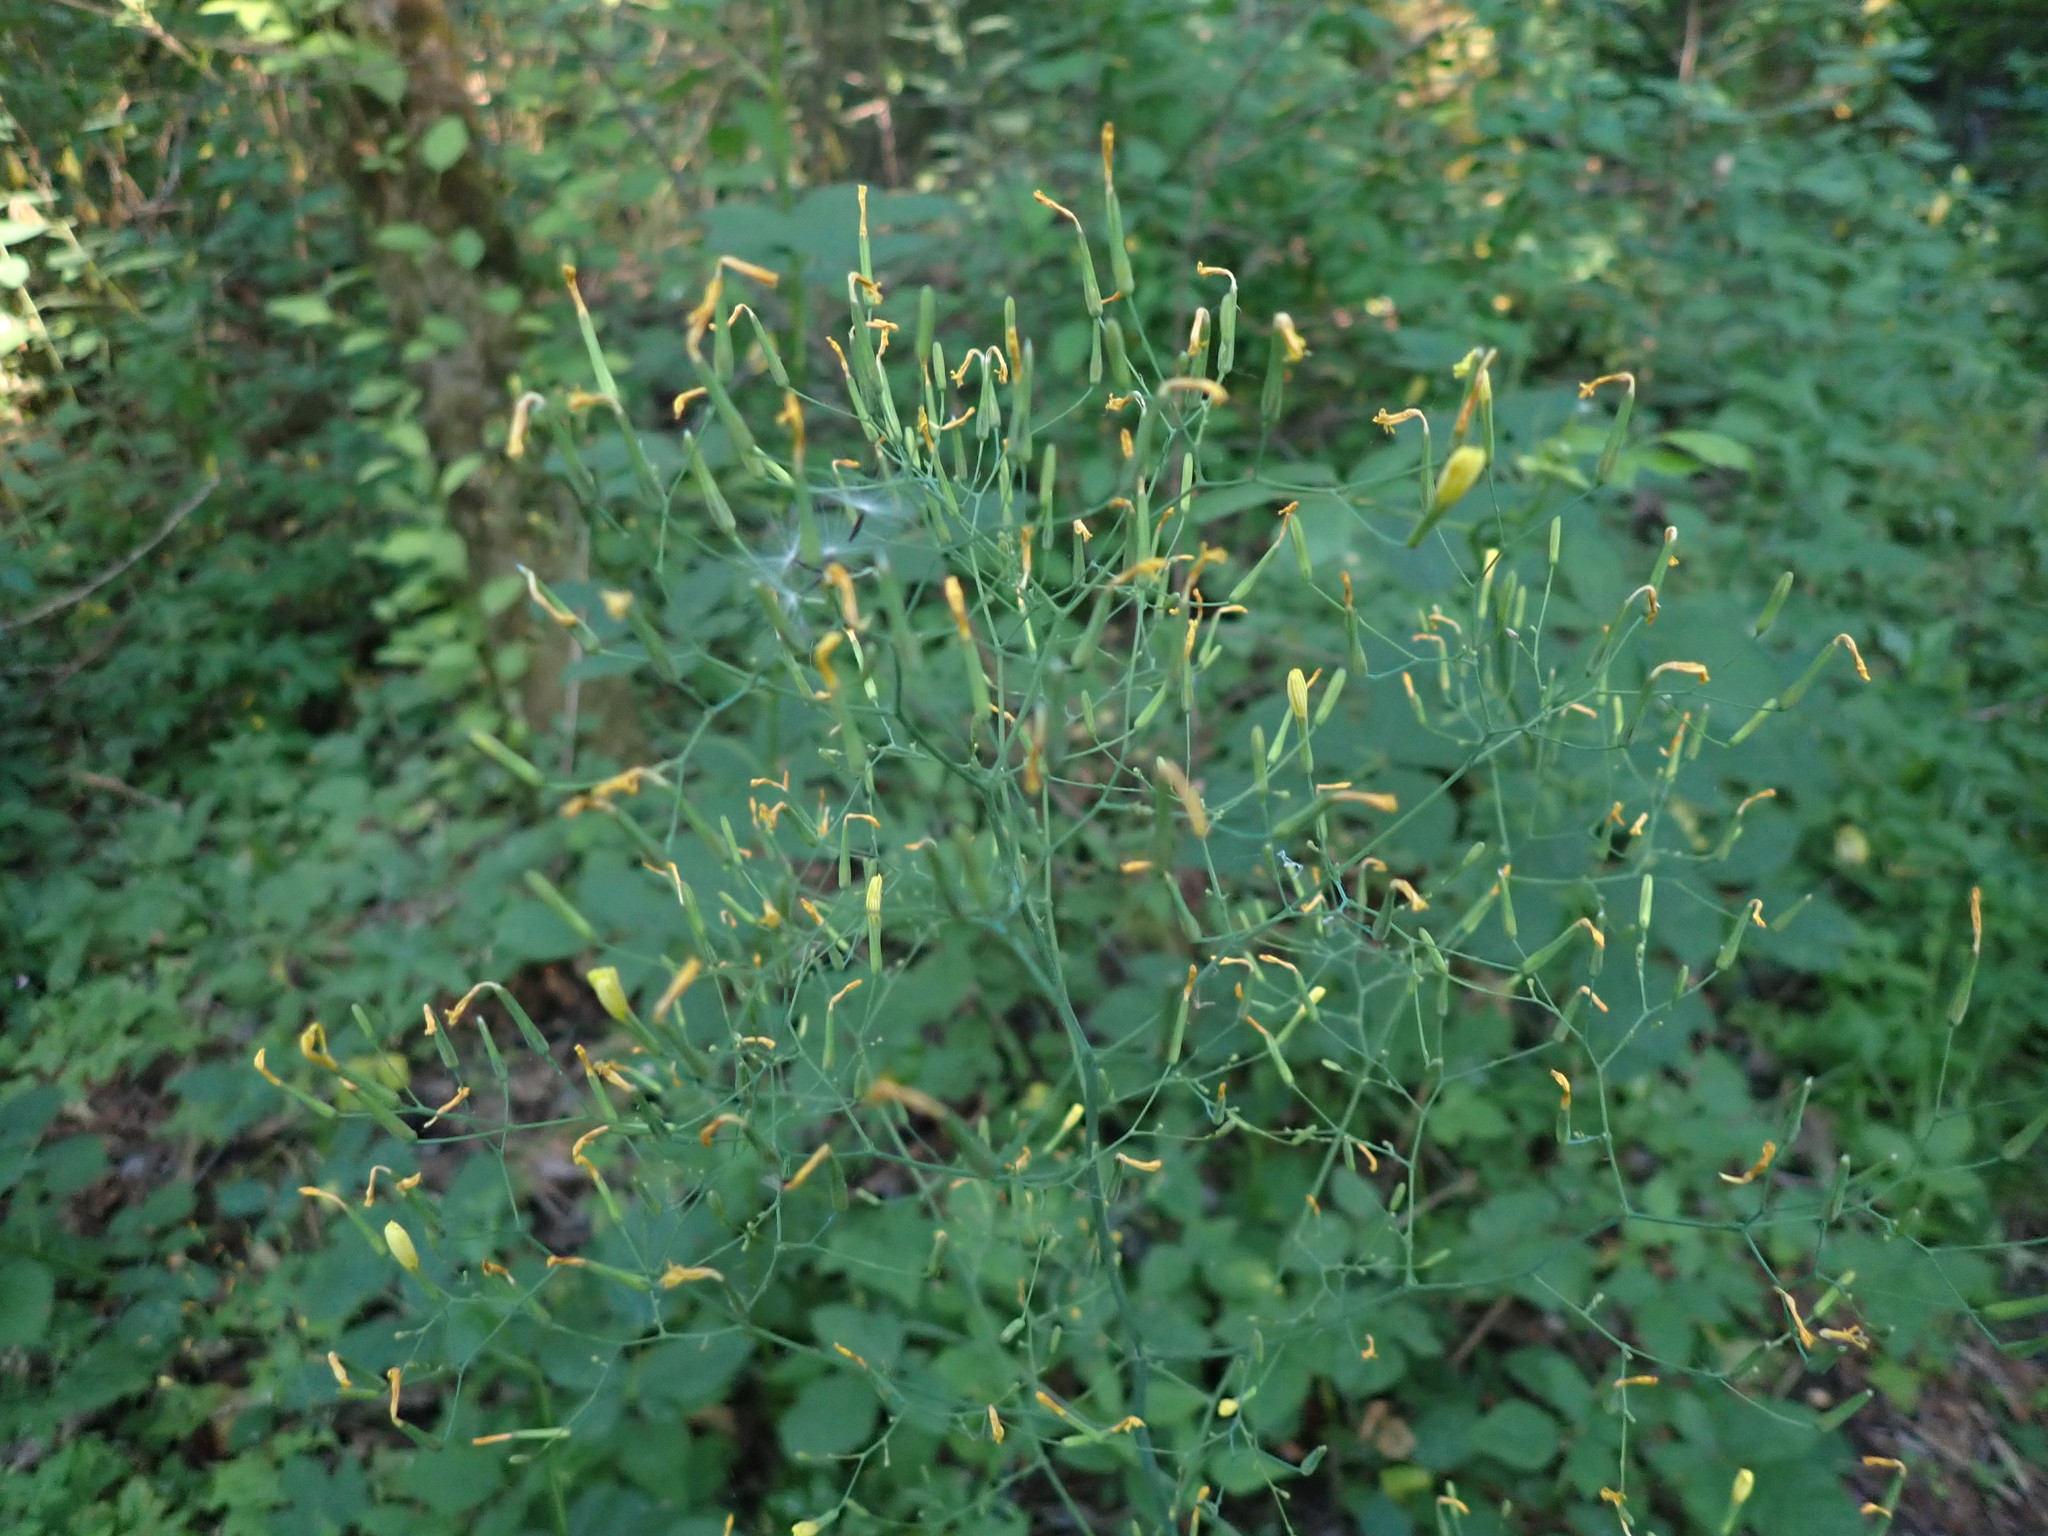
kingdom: Plantae
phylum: Tracheophyta
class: Magnoliopsida
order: Asterales
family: Asteraceae
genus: Mycelis
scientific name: Mycelis muralis
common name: Wall lettuce
